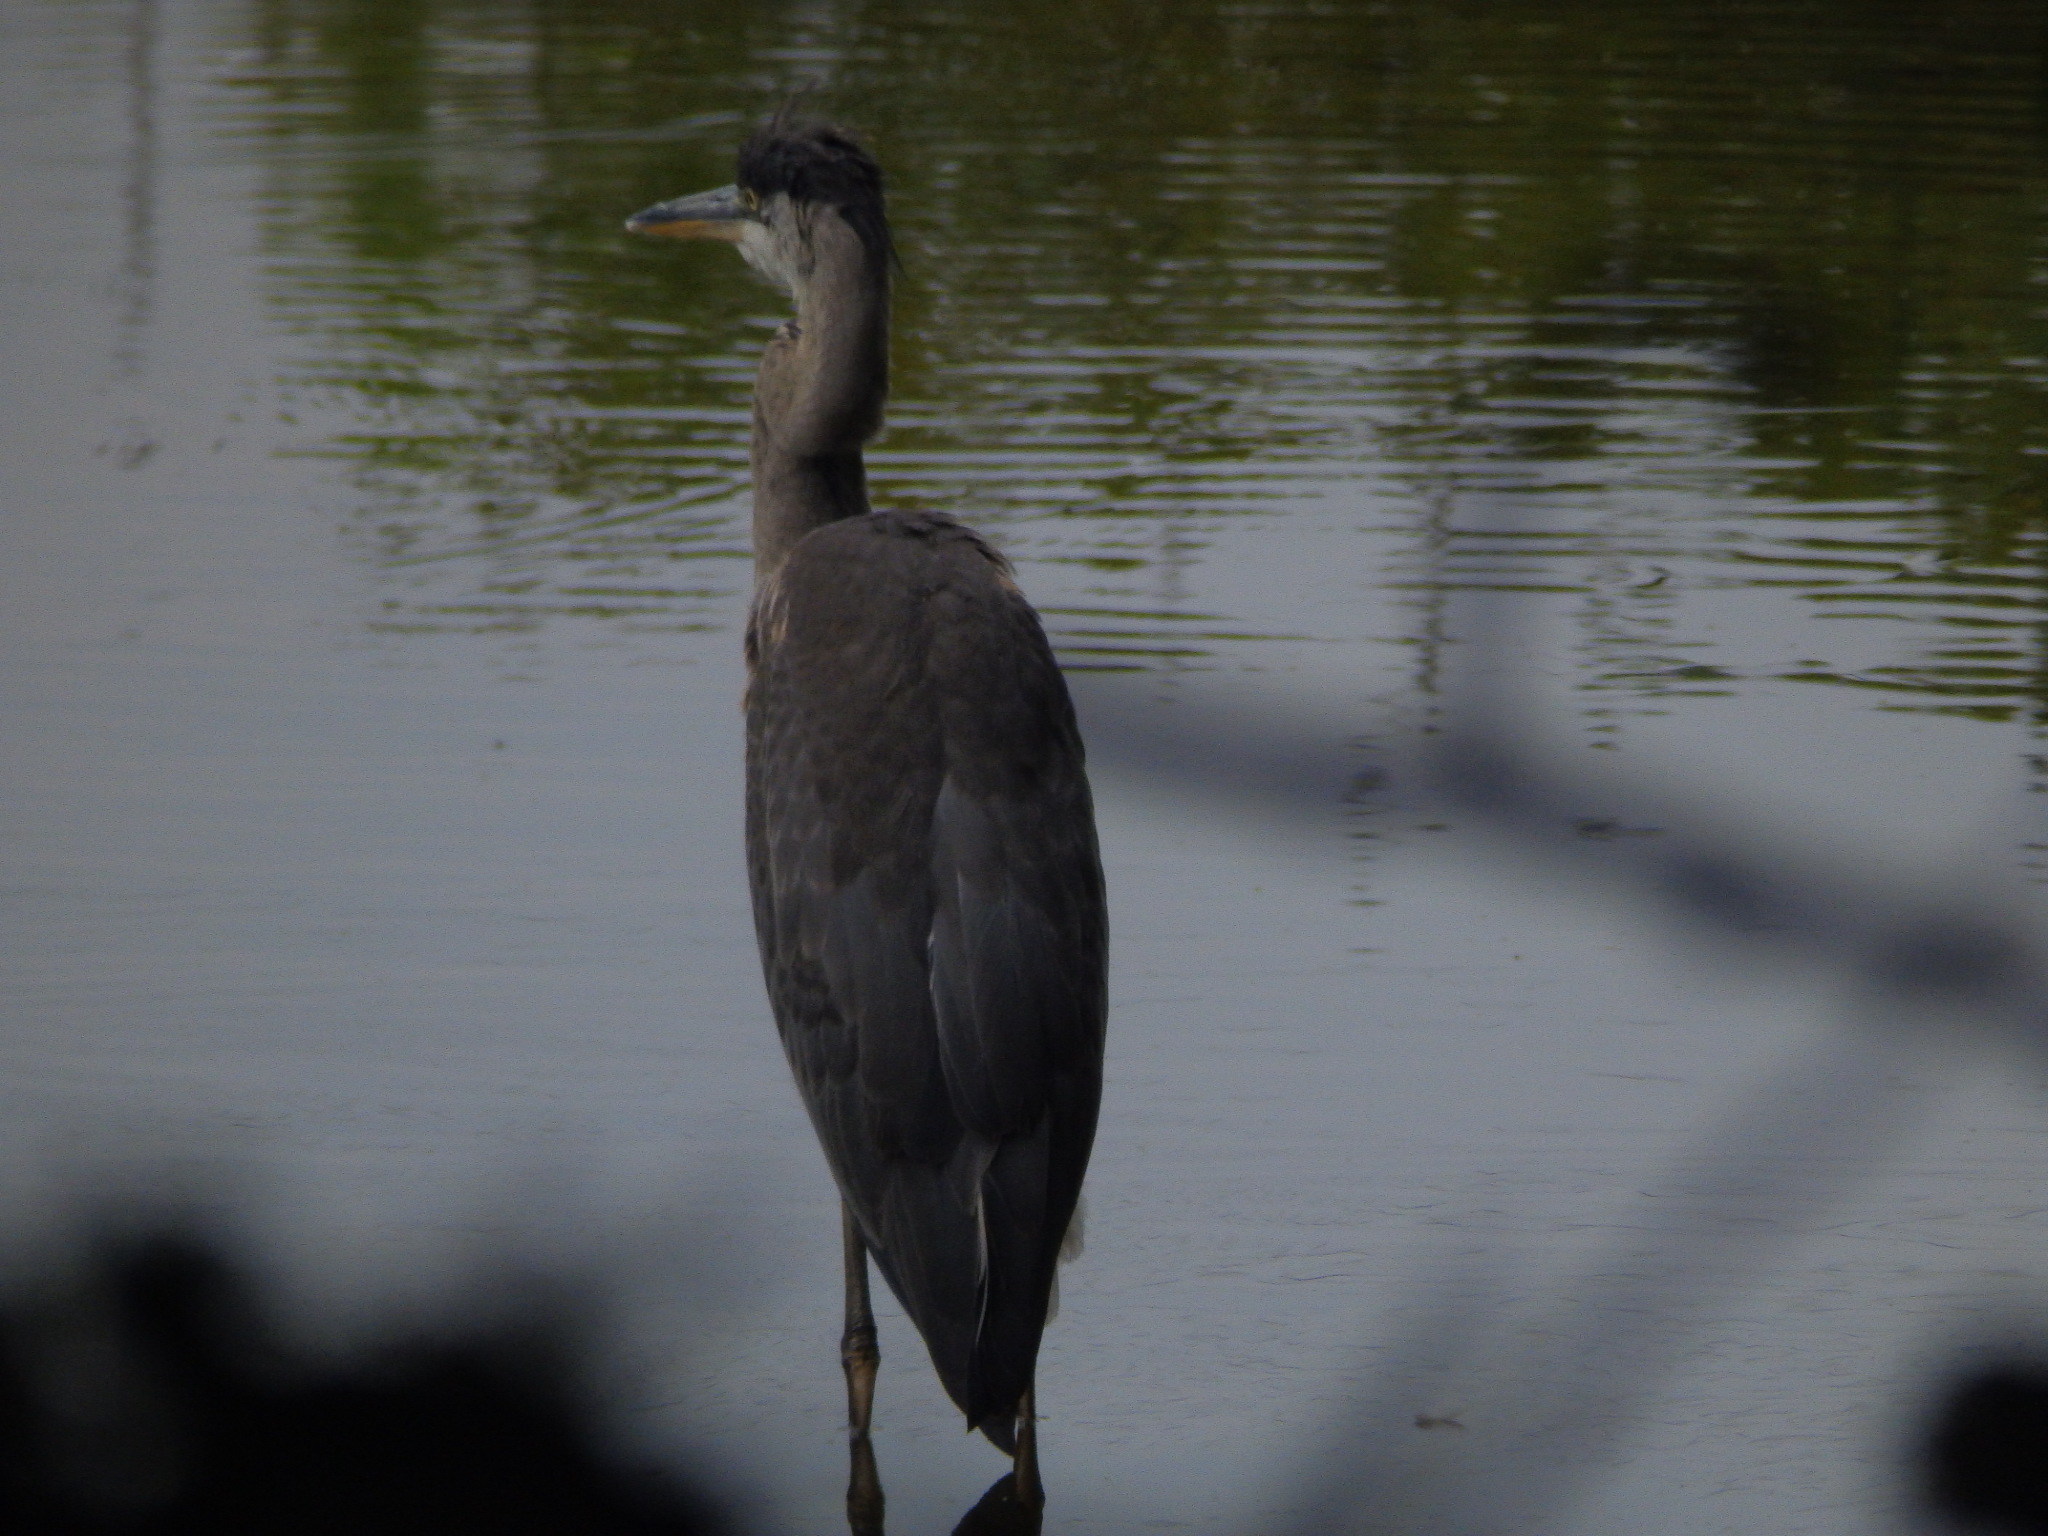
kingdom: Animalia
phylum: Chordata
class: Aves
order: Pelecaniformes
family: Ardeidae
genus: Ardea
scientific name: Ardea herodias
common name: Great blue heron
